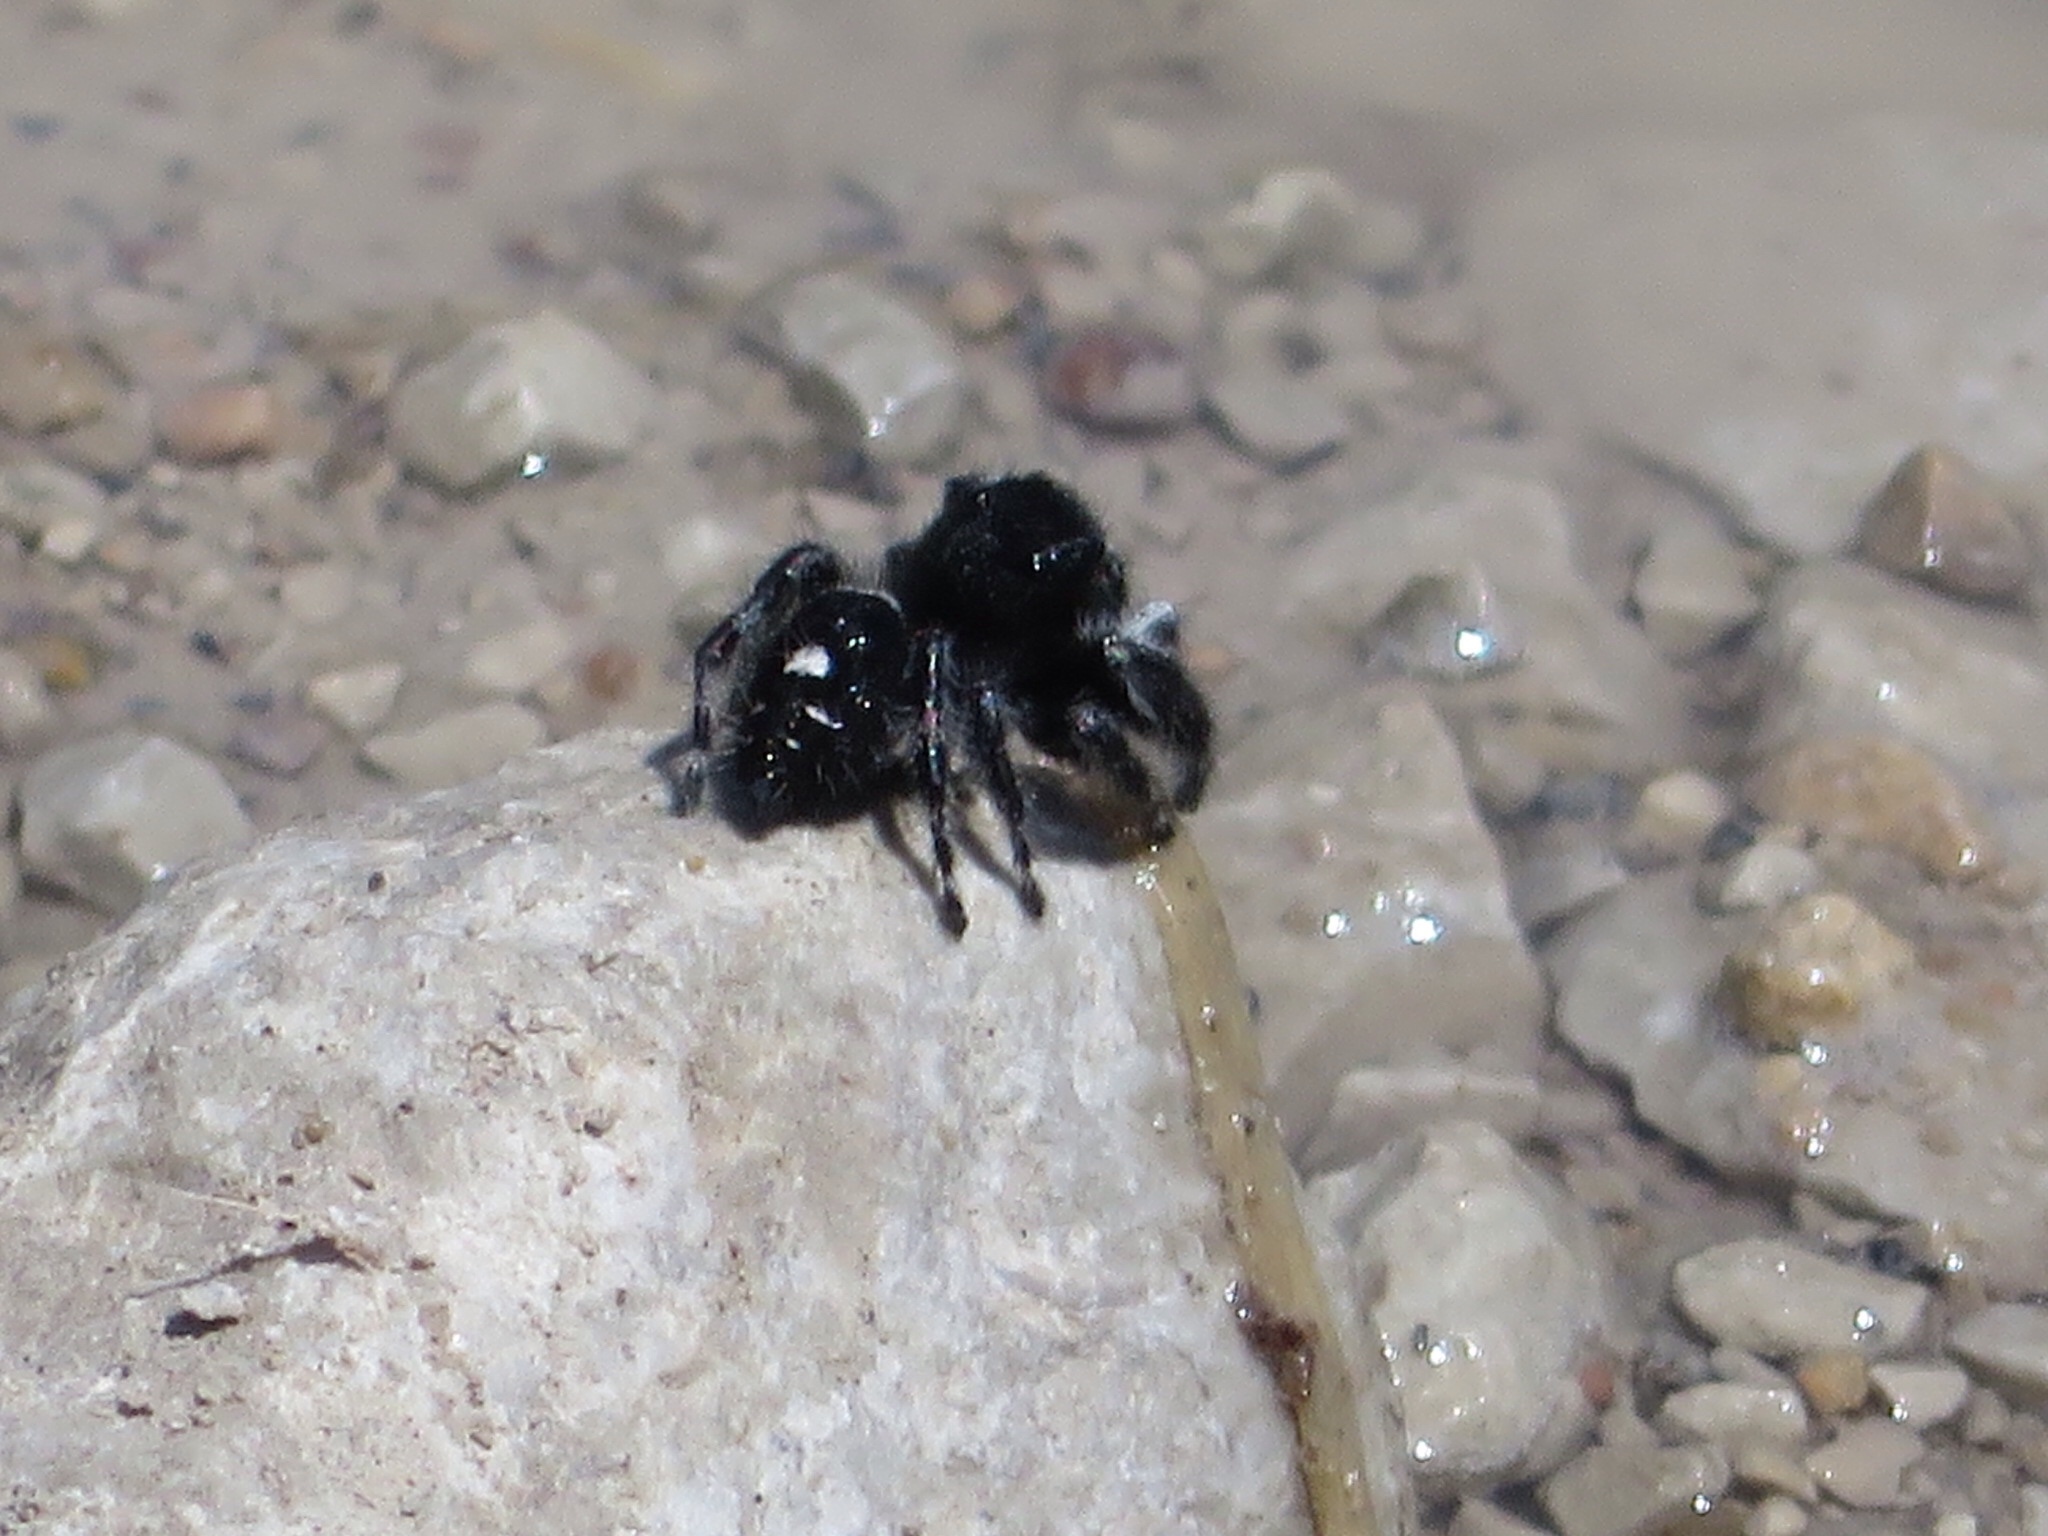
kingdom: Animalia
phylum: Arthropoda
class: Arachnida
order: Araneae
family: Salticidae
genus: Phidippus
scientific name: Phidippus audax
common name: Bold jumper
